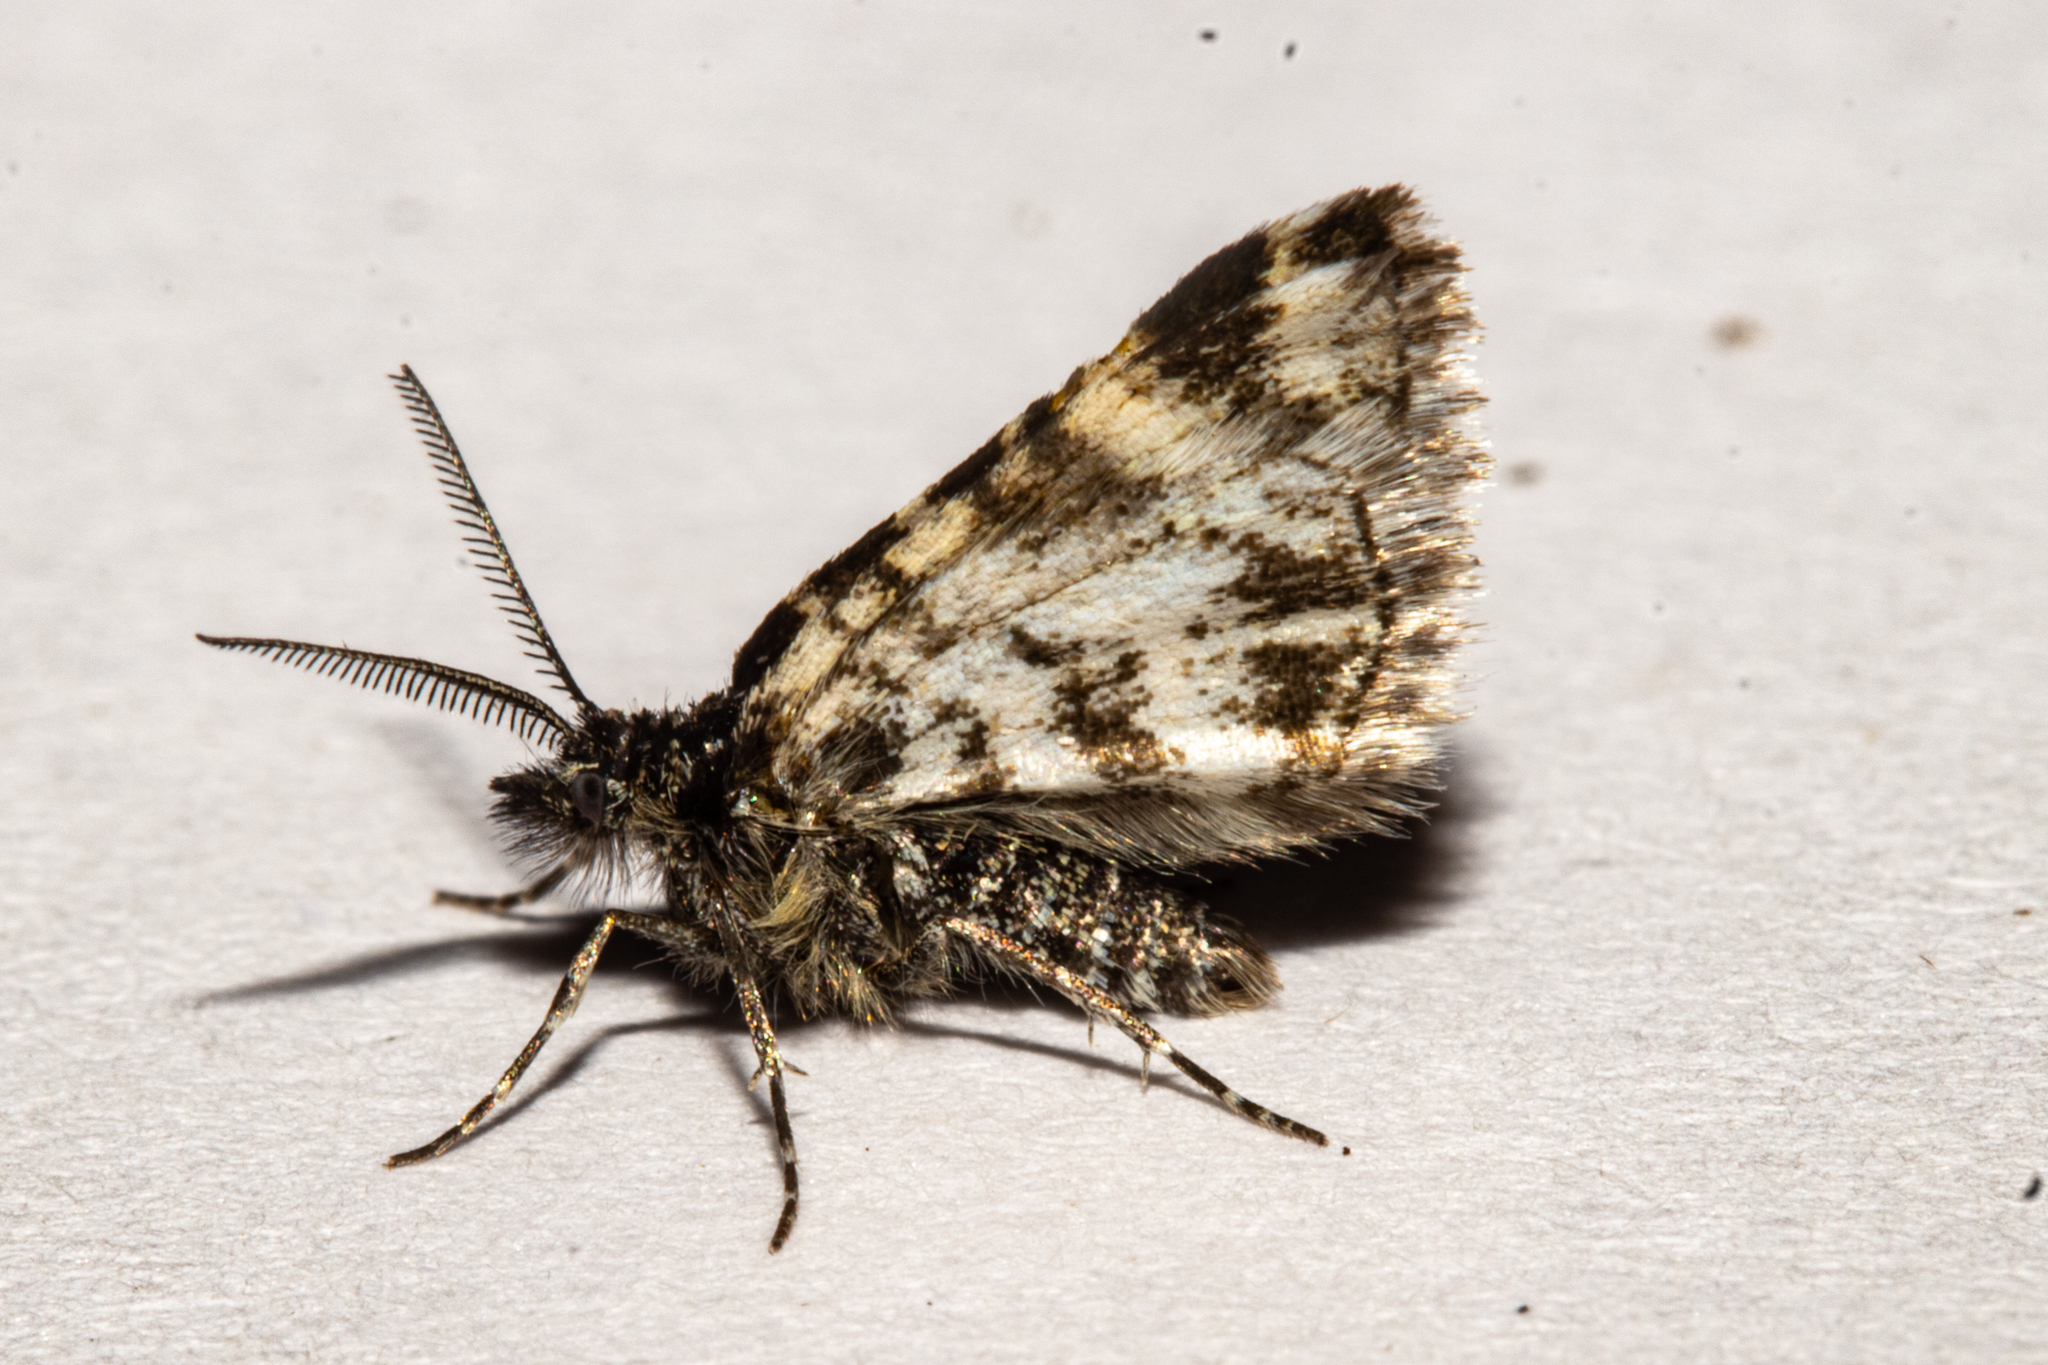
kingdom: Animalia
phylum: Arthropoda
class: Insecta
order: Lepidoptera
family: Geometridae
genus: Notoreas
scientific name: Notoreas hexaleuca
